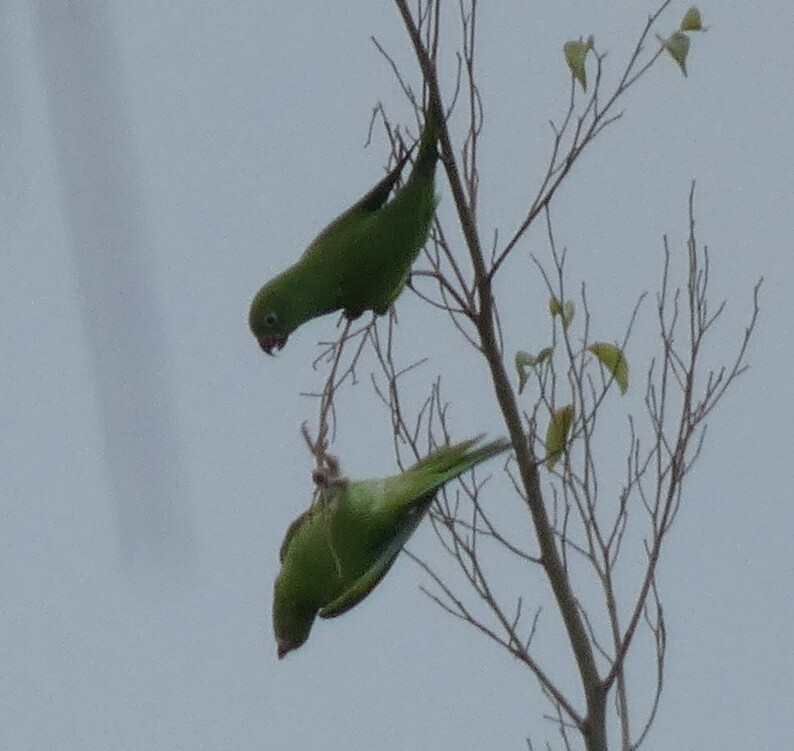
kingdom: Animalia
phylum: Chordata
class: Aves
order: Psittaciformes
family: Psittacidae
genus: Brotogeris
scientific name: Brotogeris chiriri
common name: Yellow-chevroned parakeet
